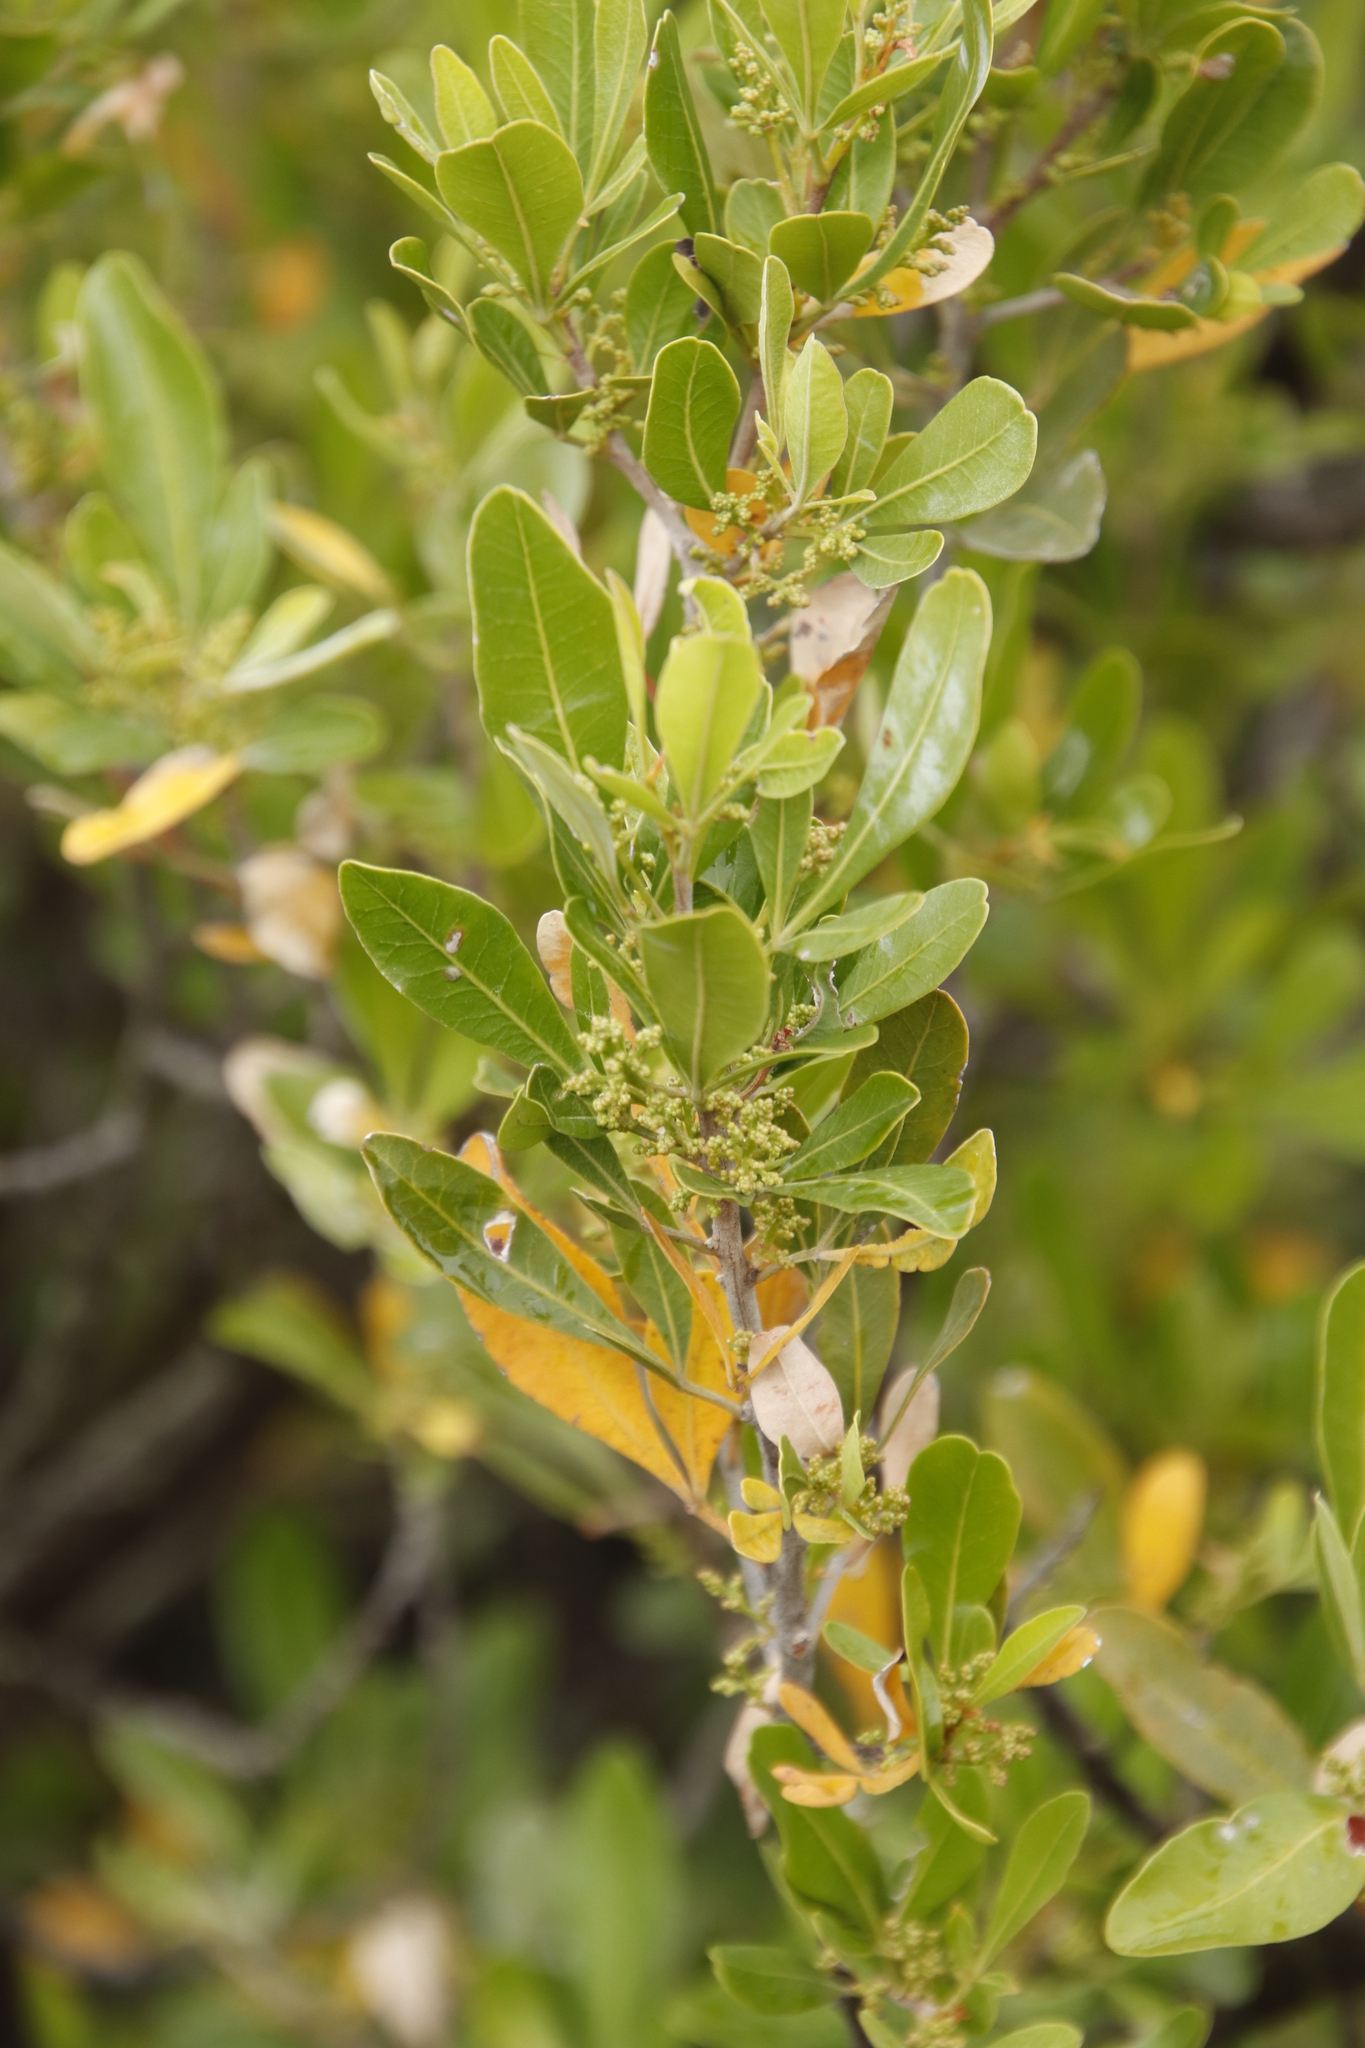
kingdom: Plantae
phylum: Tracheophyta
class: Magnoliopsida
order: Sapindales
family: Anacardiaceae
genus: Searsia
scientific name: Searsia lucida
